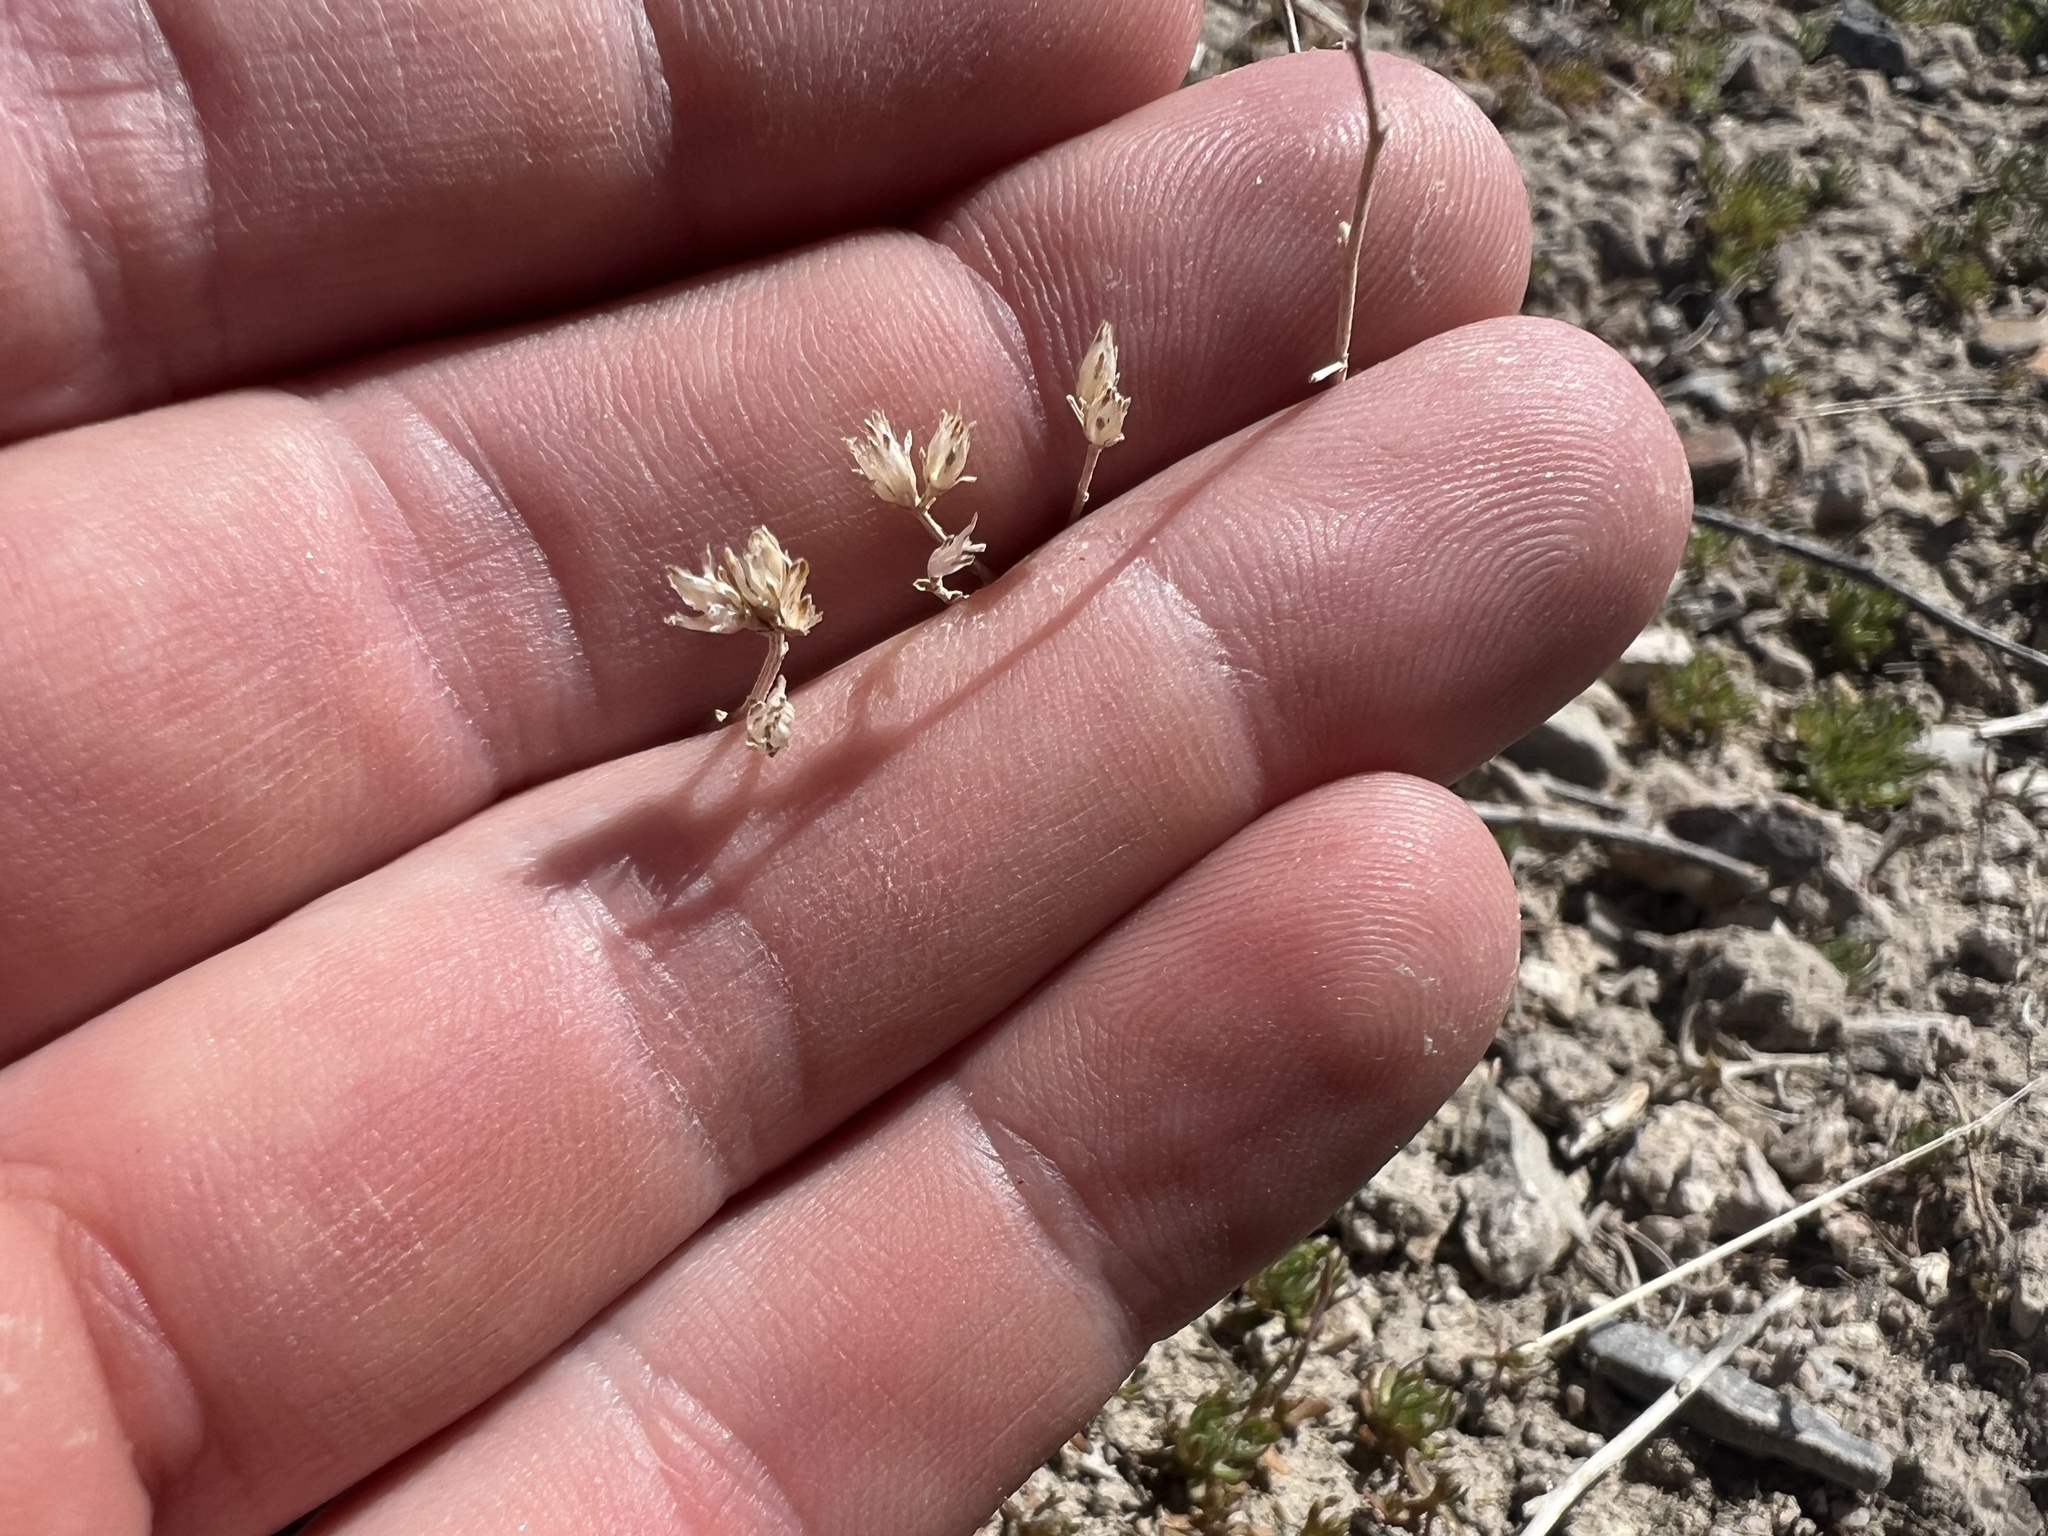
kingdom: Plantae
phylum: Tracheophyta
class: Magnoliopsida
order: Asterales
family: Asteraceae
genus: Gutierrezia
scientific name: Gutierrezia sarothrae
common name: Broom snakeweed
